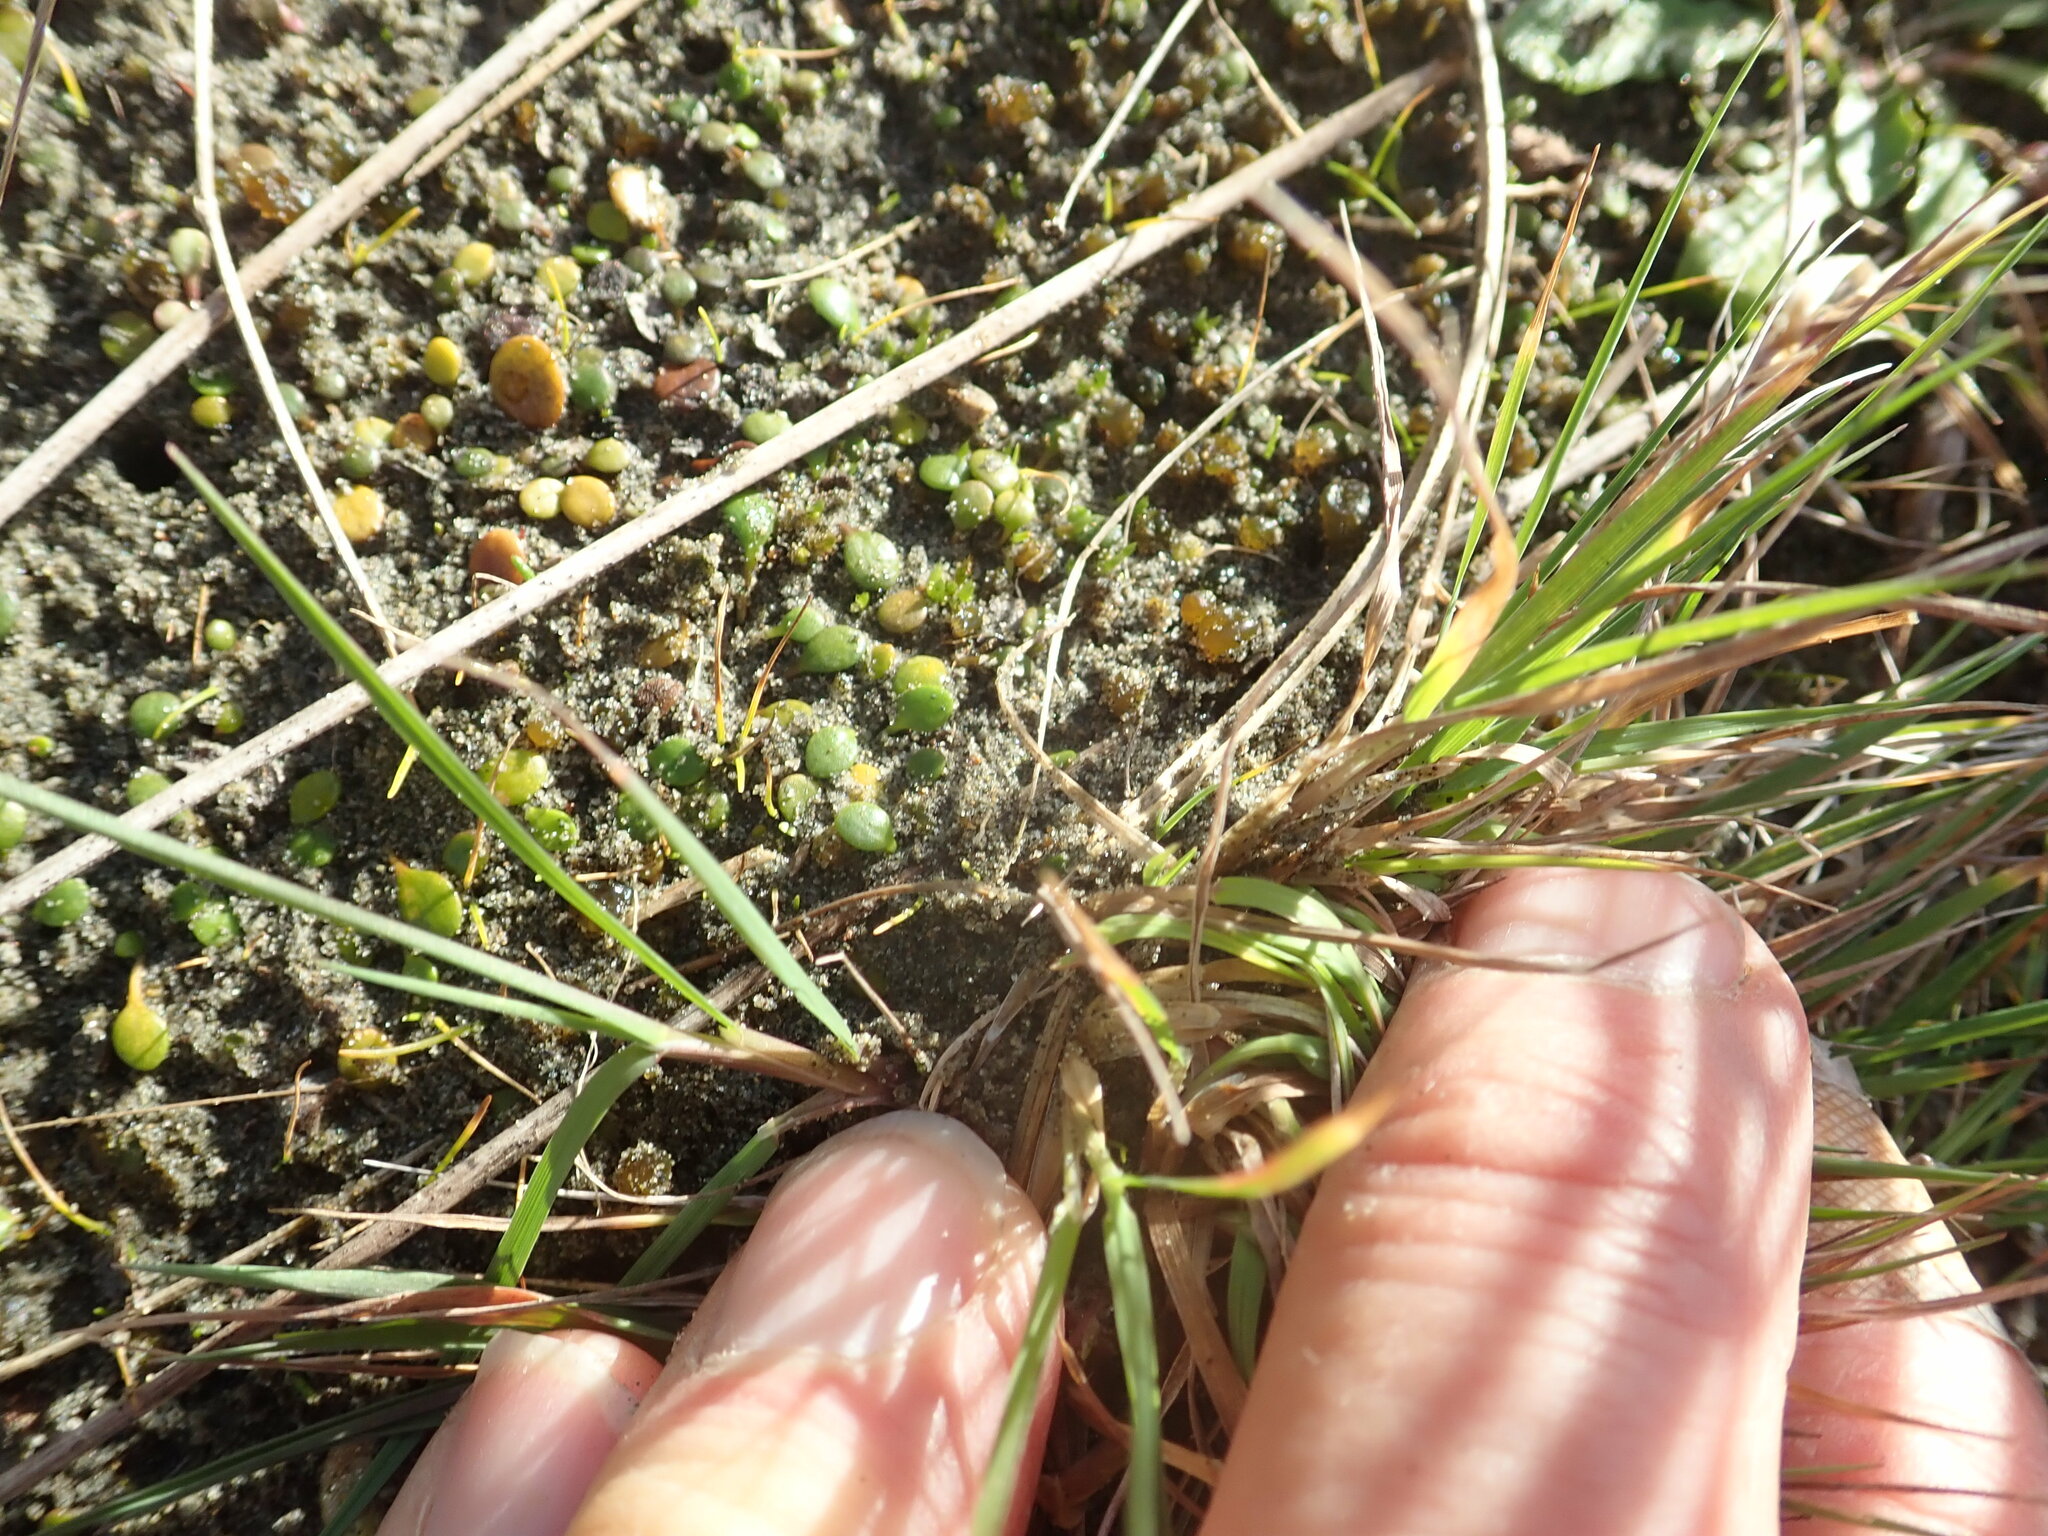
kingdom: Plantae
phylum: Tracheophyta
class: Magnoliopsida
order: Asterales
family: Goodeniaceae
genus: Goodenia
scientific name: Goodenia heenanii
